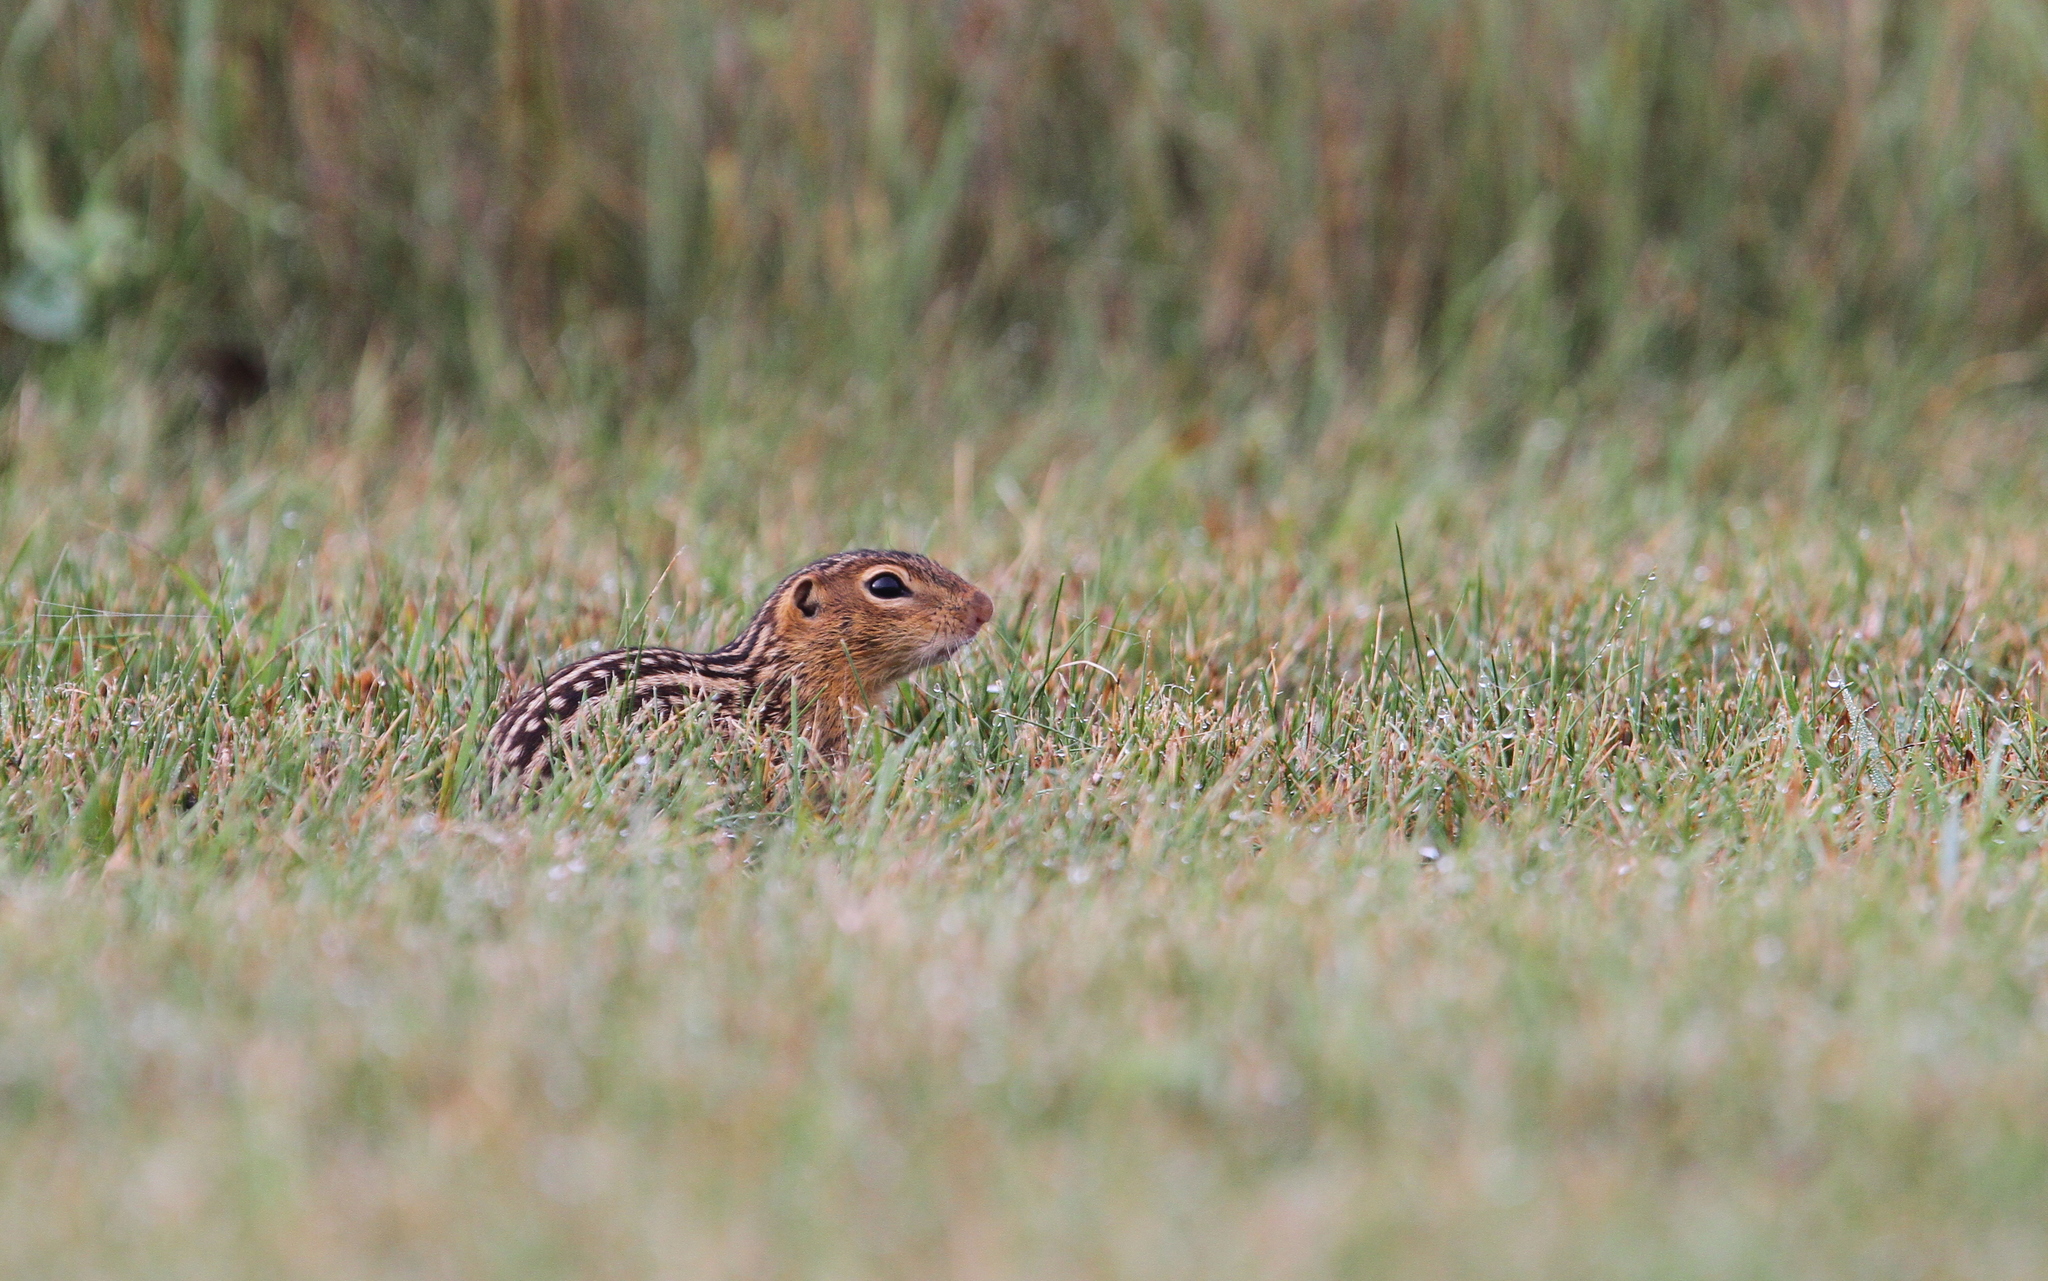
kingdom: Animalia
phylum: Chordata
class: Mammalia
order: Rodentia
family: Sciuridae
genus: Ictidomys
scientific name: Ictidomys tridecemlineatus
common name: Thirteen-lined ground squirrel
